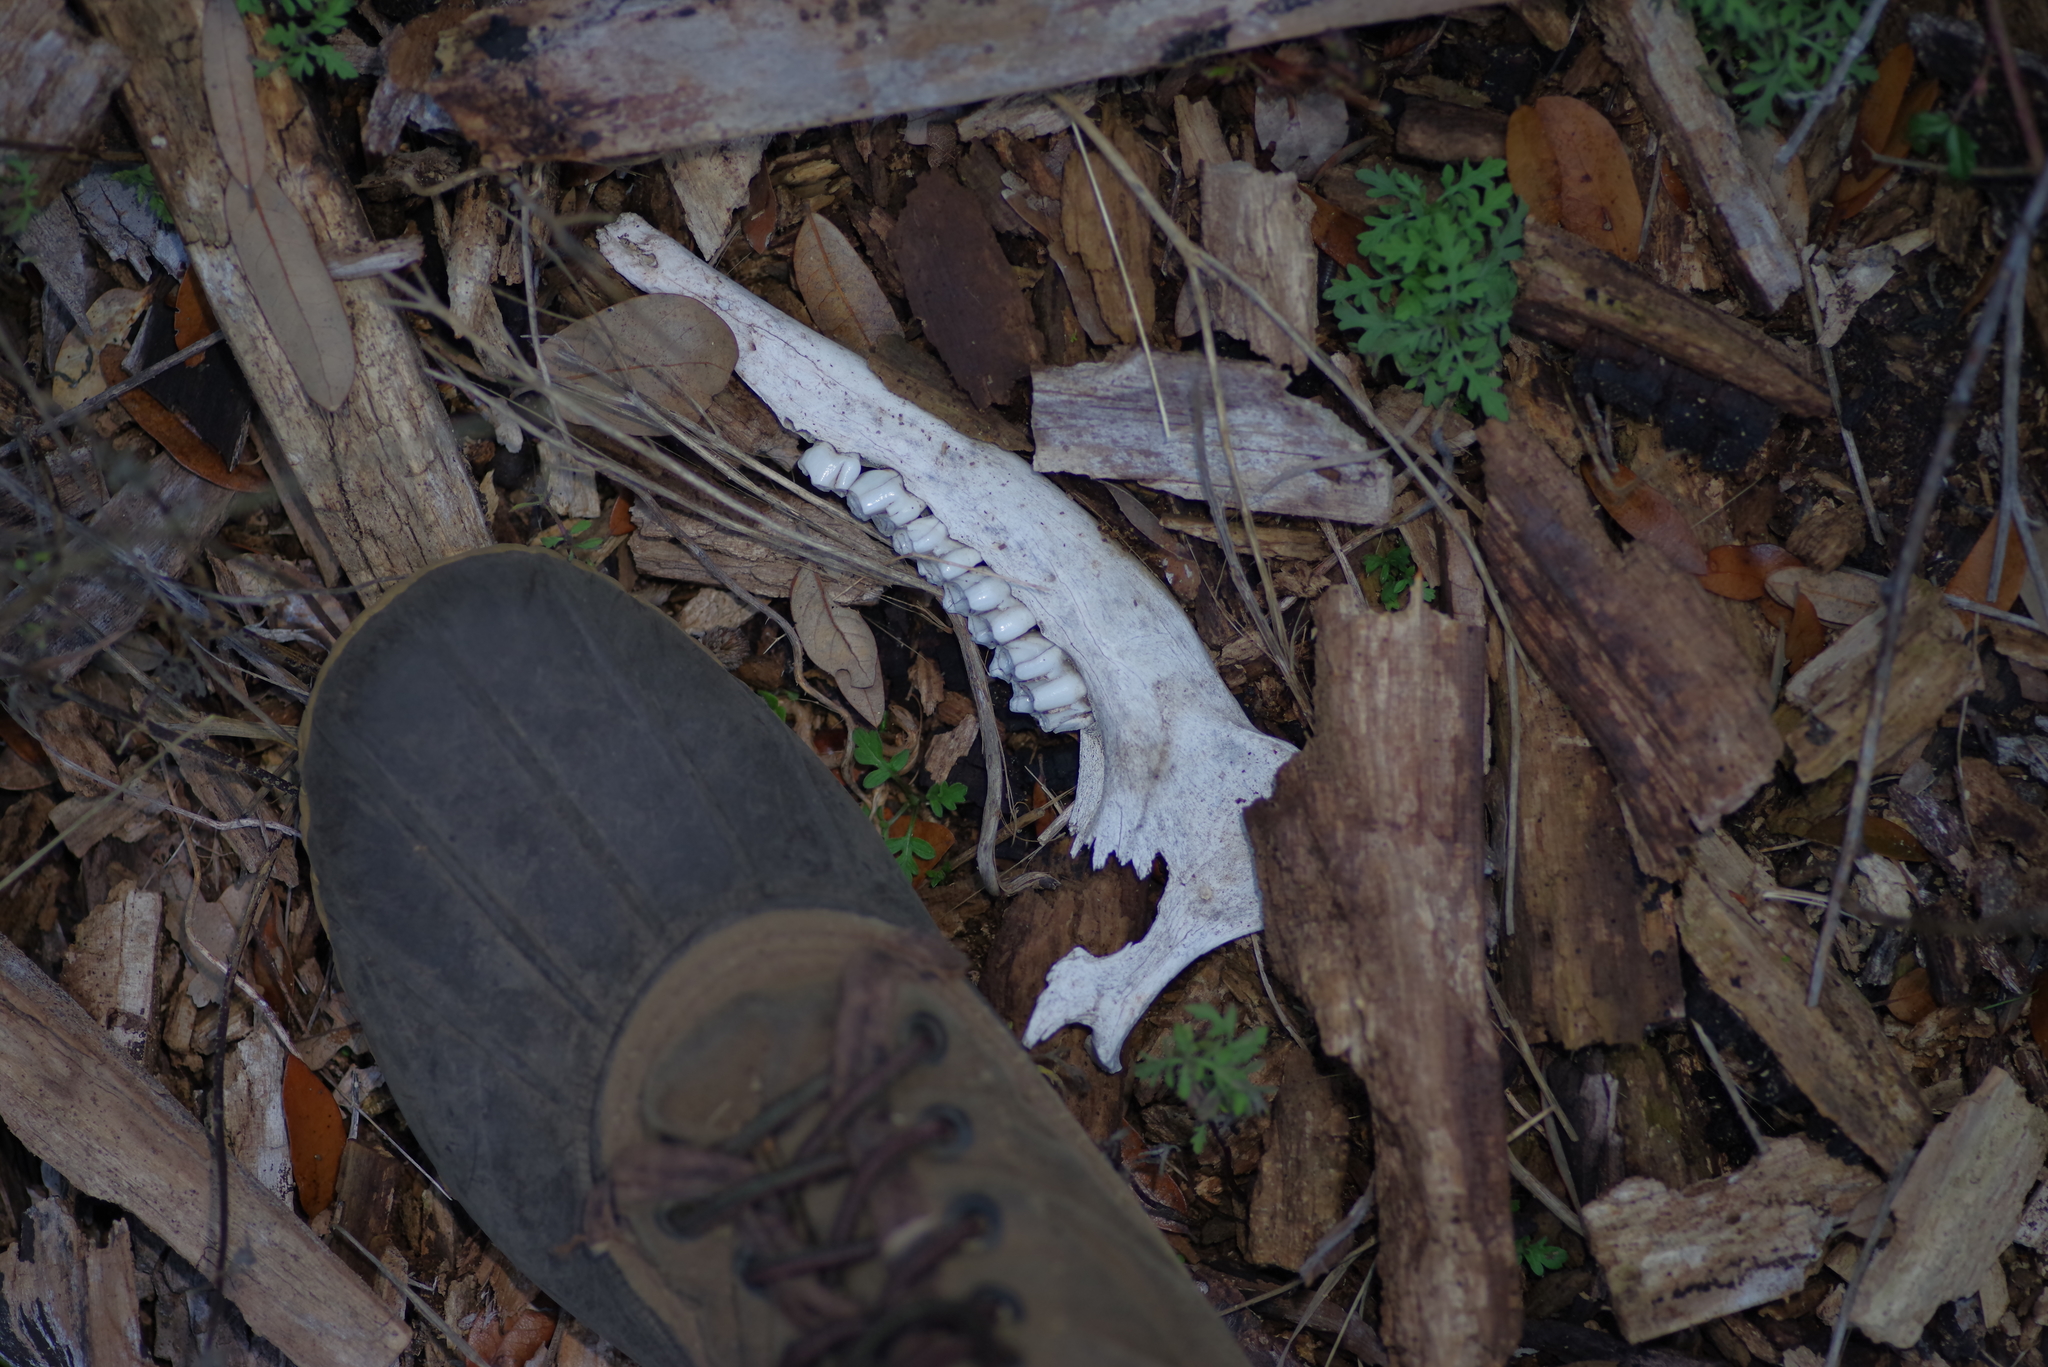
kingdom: Animalia
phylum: Chordata
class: Mammalia
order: Artiodactyla
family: Cervidae
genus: Odocoileus
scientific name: Odocoileus virginianus
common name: White-tailed deer
